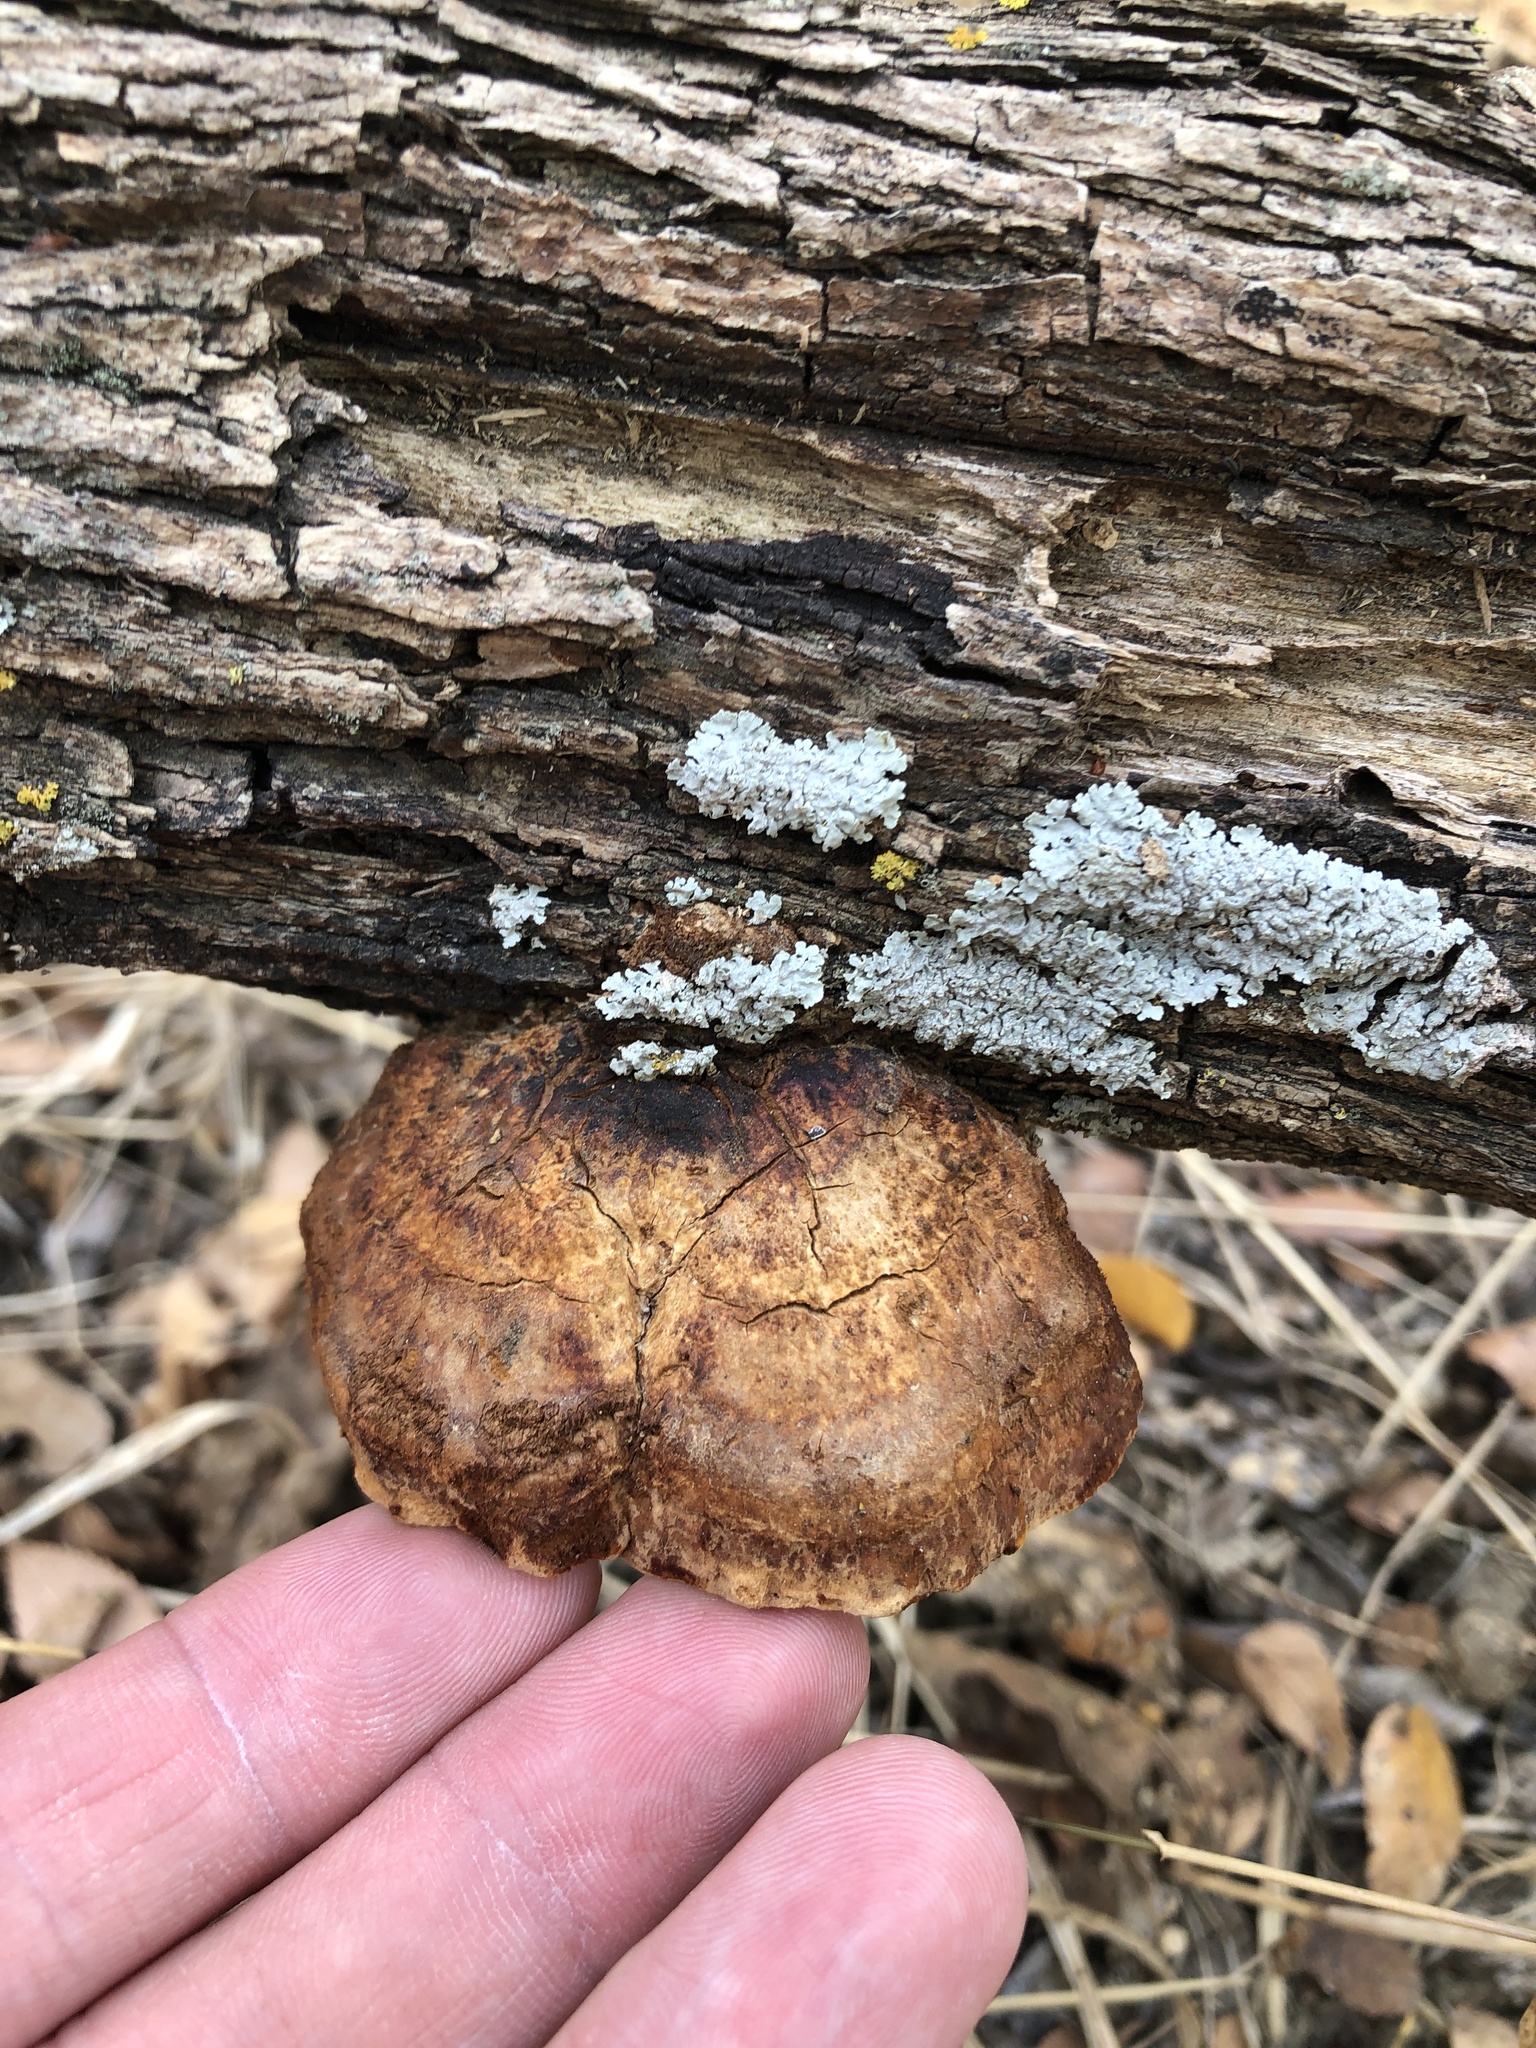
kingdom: Fungi
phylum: Basidiomycota
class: Agaricomycetes
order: Hymenochaetales
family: Hymenochaetaceae
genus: Inocutis
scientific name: Inocutis texana
